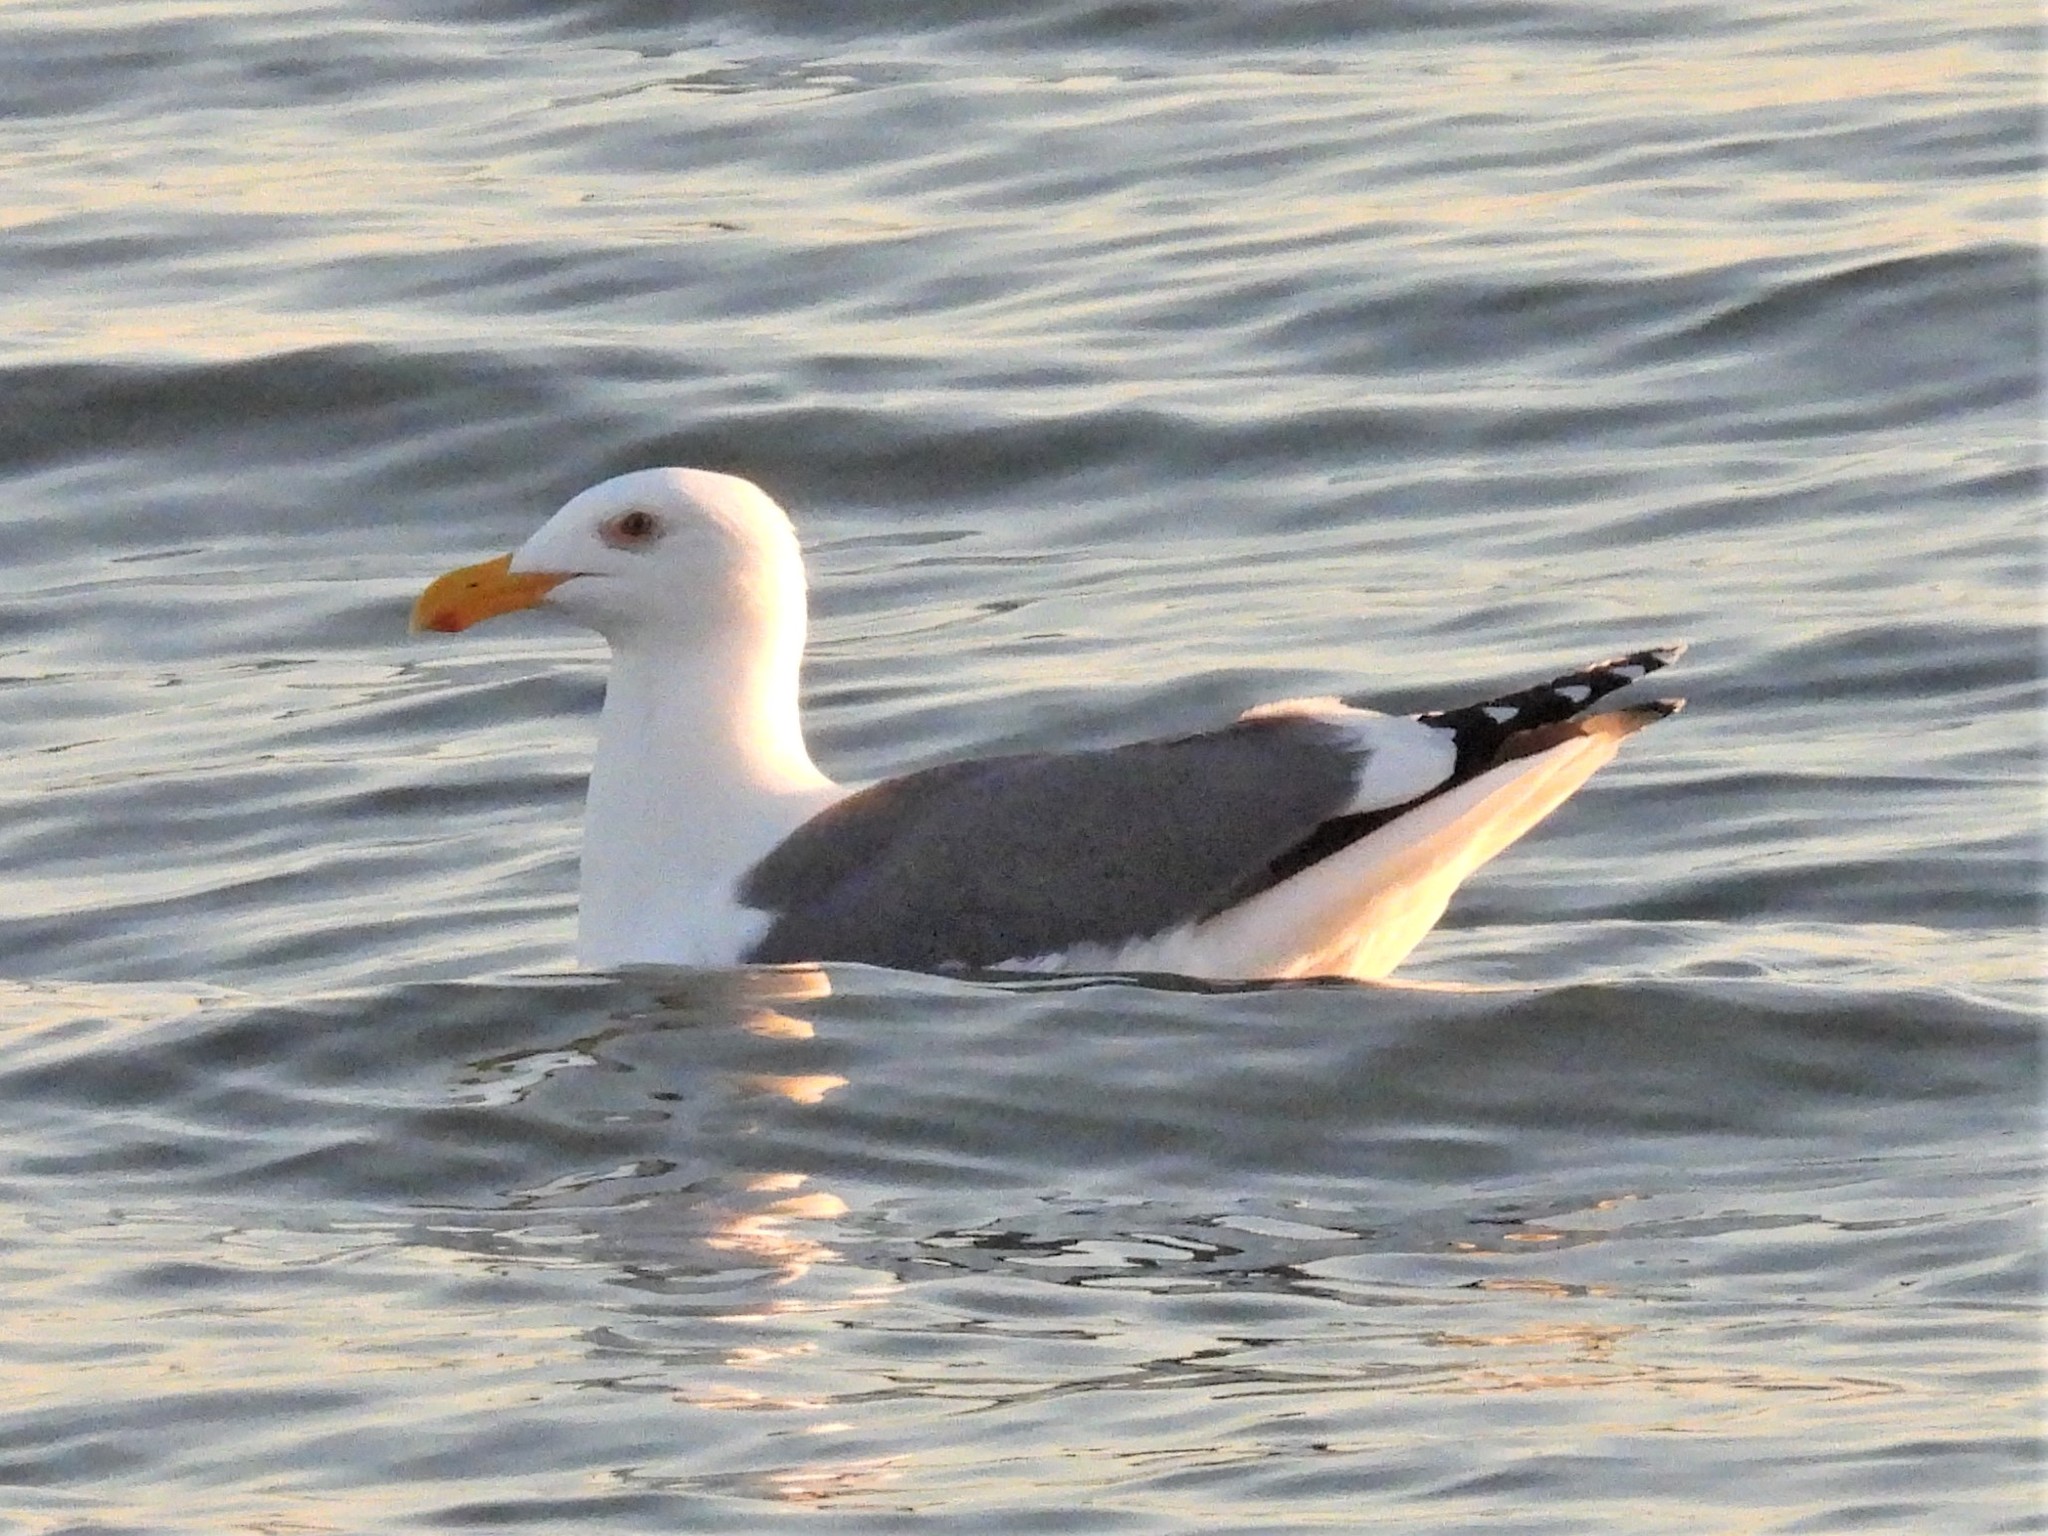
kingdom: Animalia
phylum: Chordata
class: Aves
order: Charadriiformes
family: Laridae
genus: Larus
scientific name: Larus occidentalis
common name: Western gull
